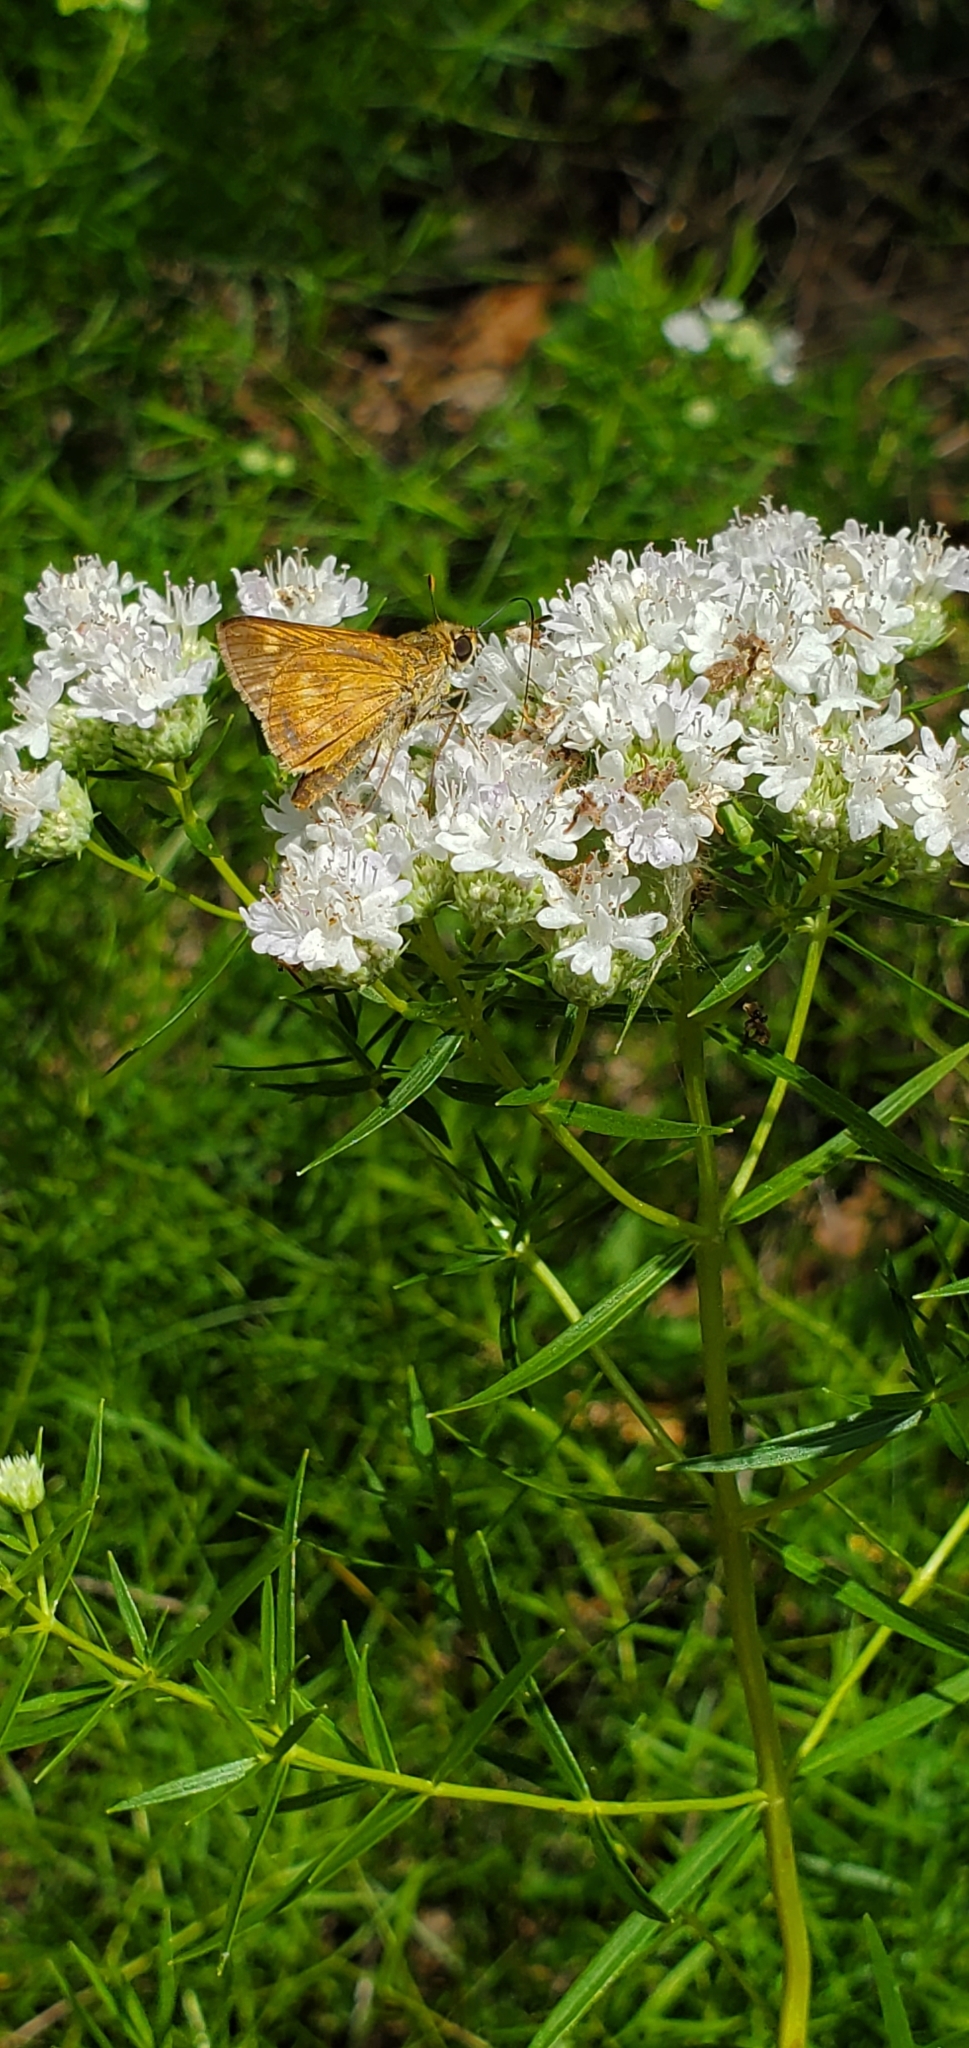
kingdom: Animalia
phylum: Arthropoda
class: Insecta
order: Lepidoptera
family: Hesperiidae
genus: Polites
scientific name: Polites otho
